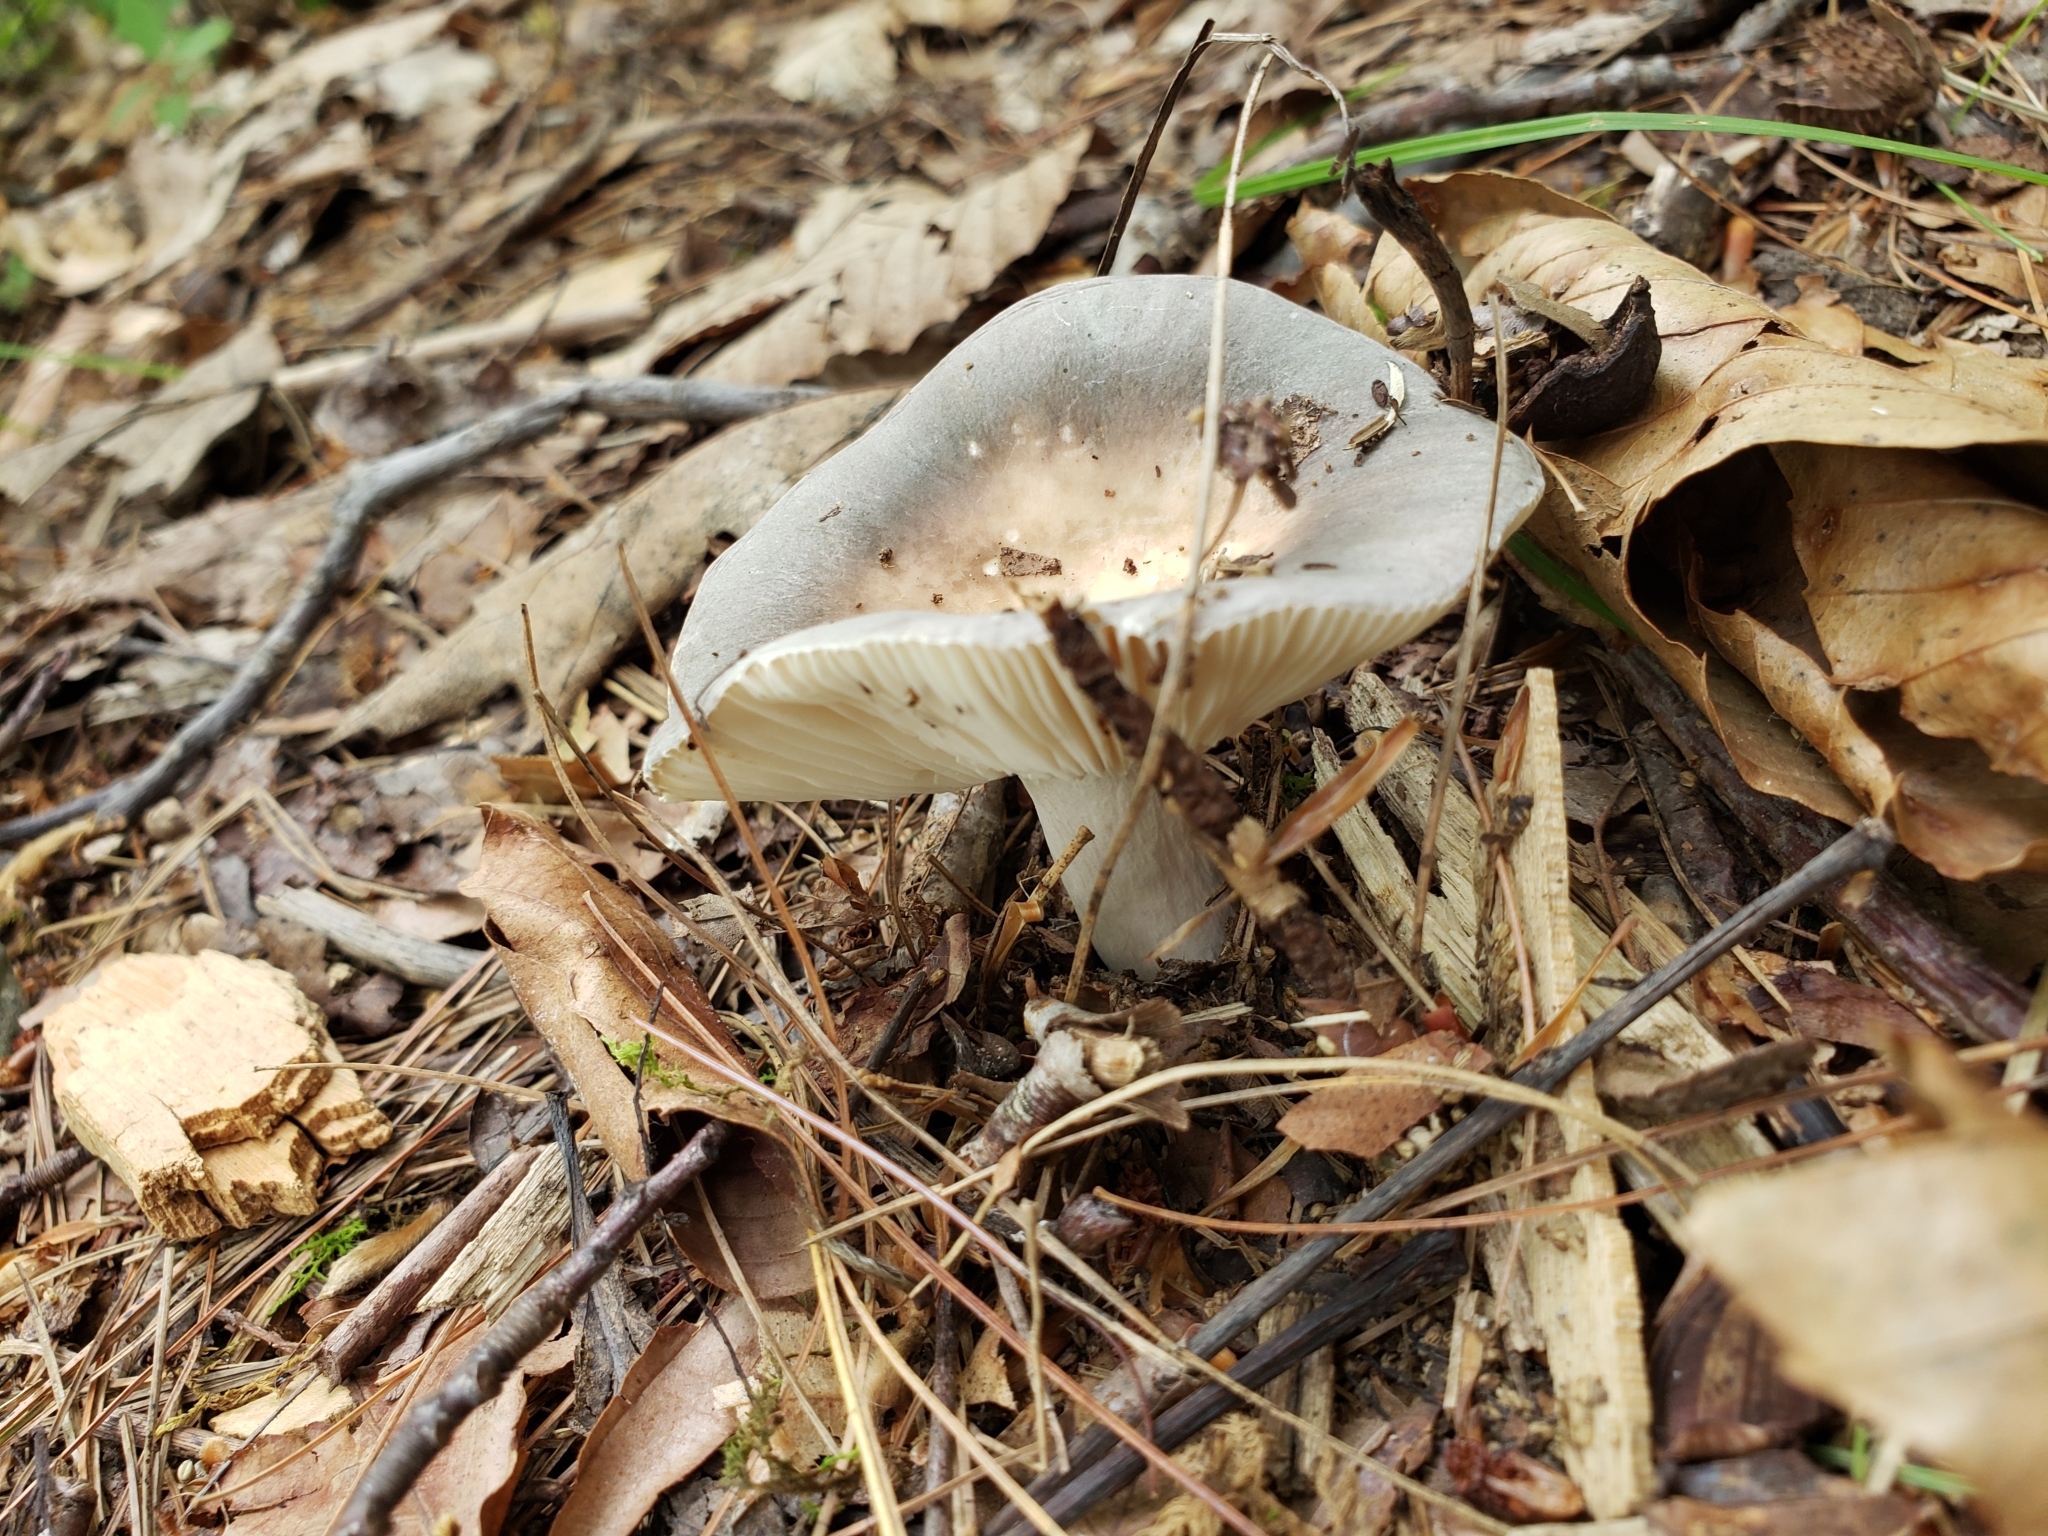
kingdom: Fungi
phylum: Basidiomycota
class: Agaricomycetes
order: Russulales
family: Russulaceae
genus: Russula
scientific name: Russula
